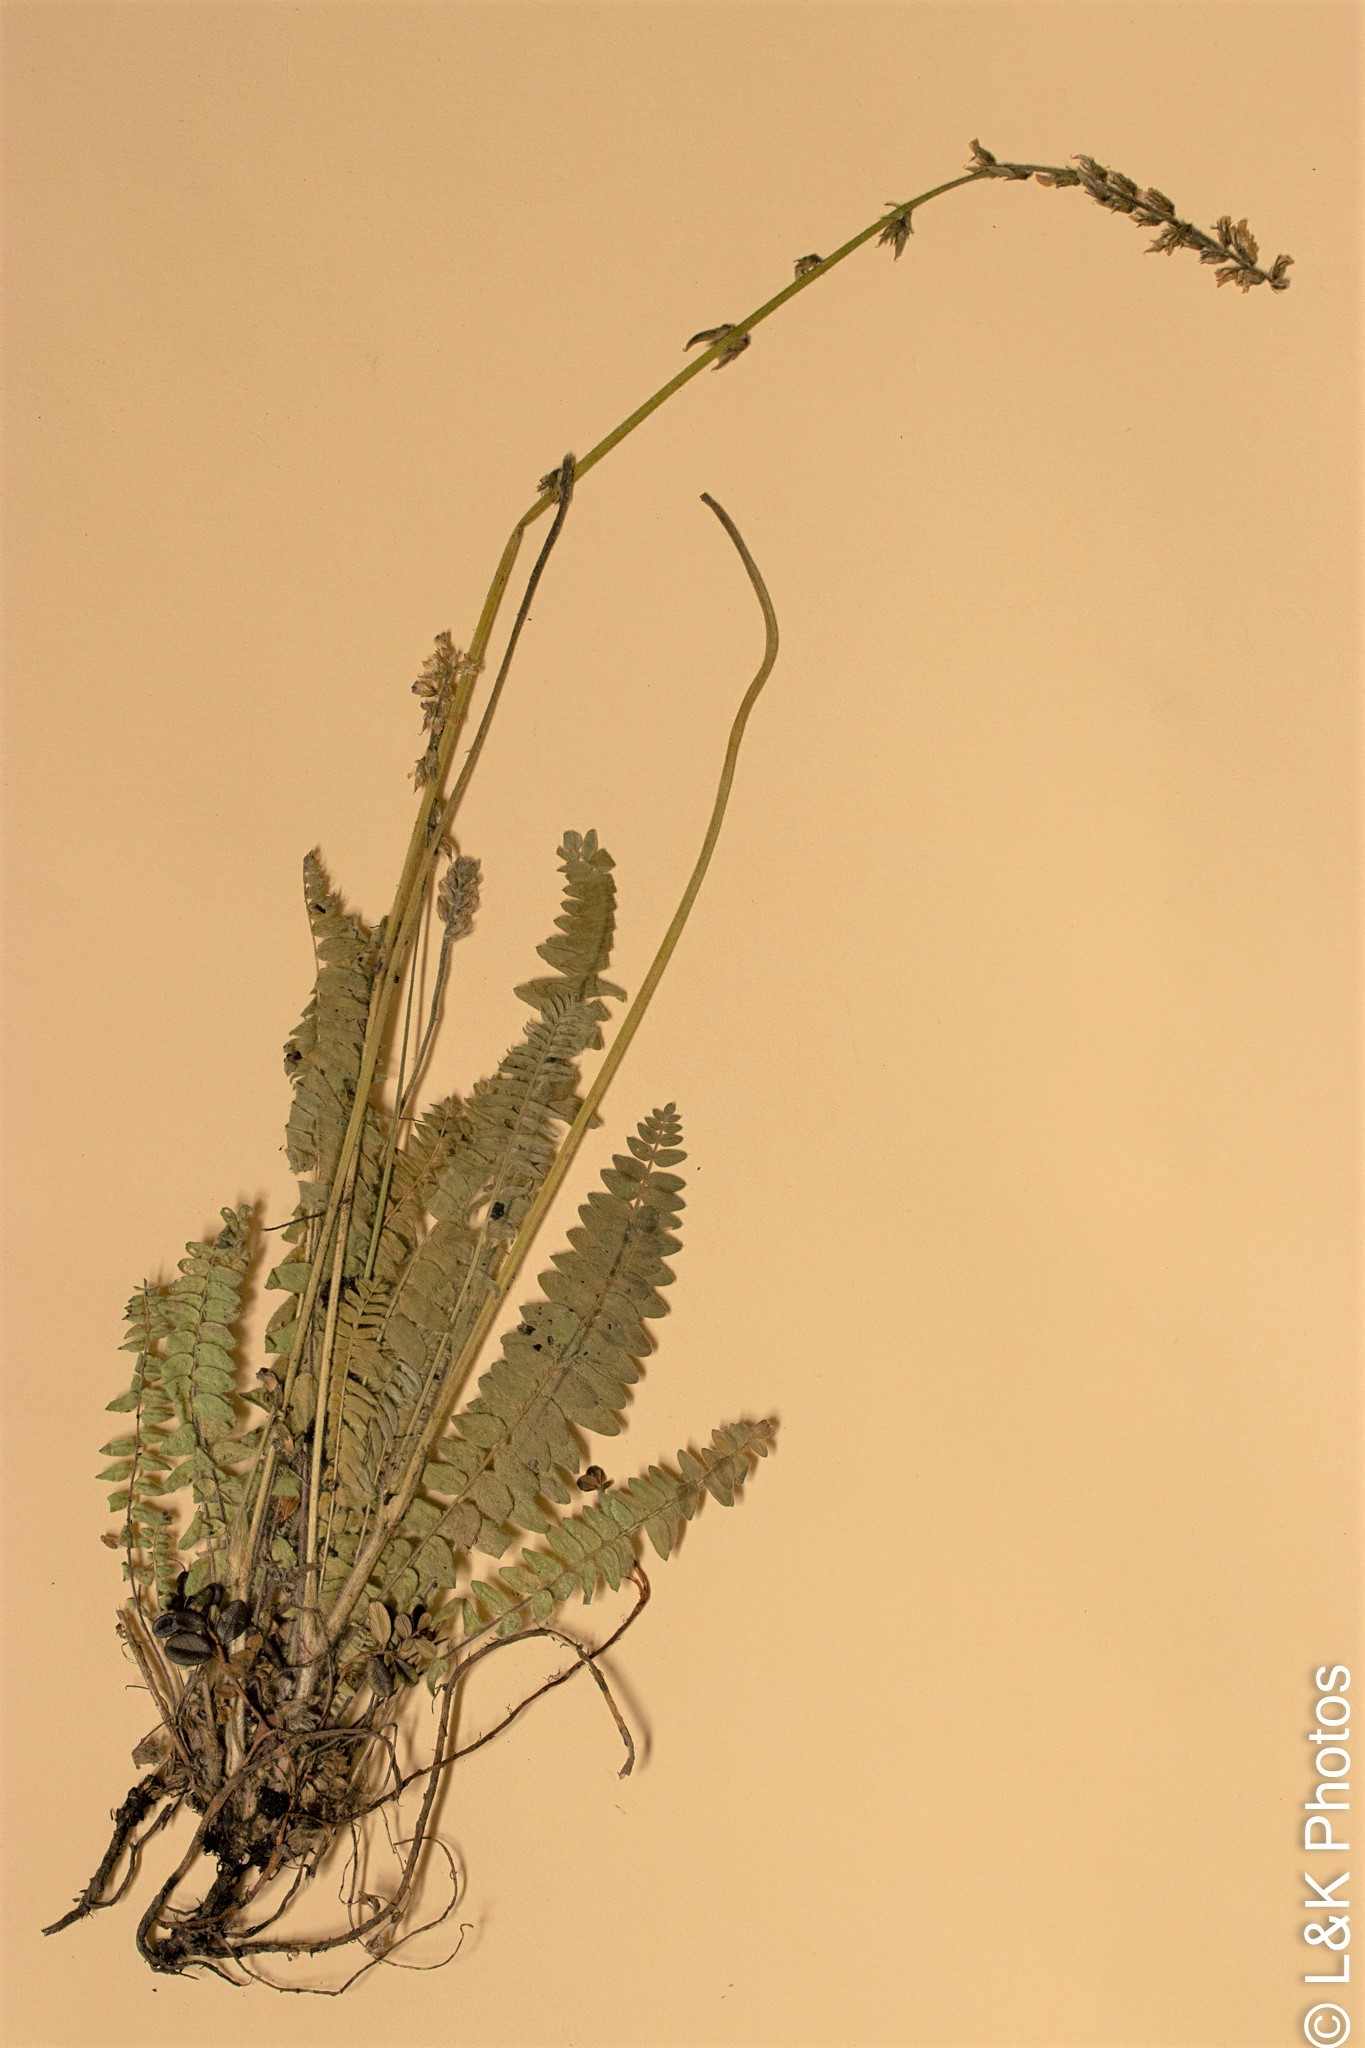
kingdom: Plantae
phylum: Tracheophyta
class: Magnoliopsida
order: Fabales
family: Fabaceae
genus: Oxytropis
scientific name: Oxytropis deflexa
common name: Stemmed oxytrope
